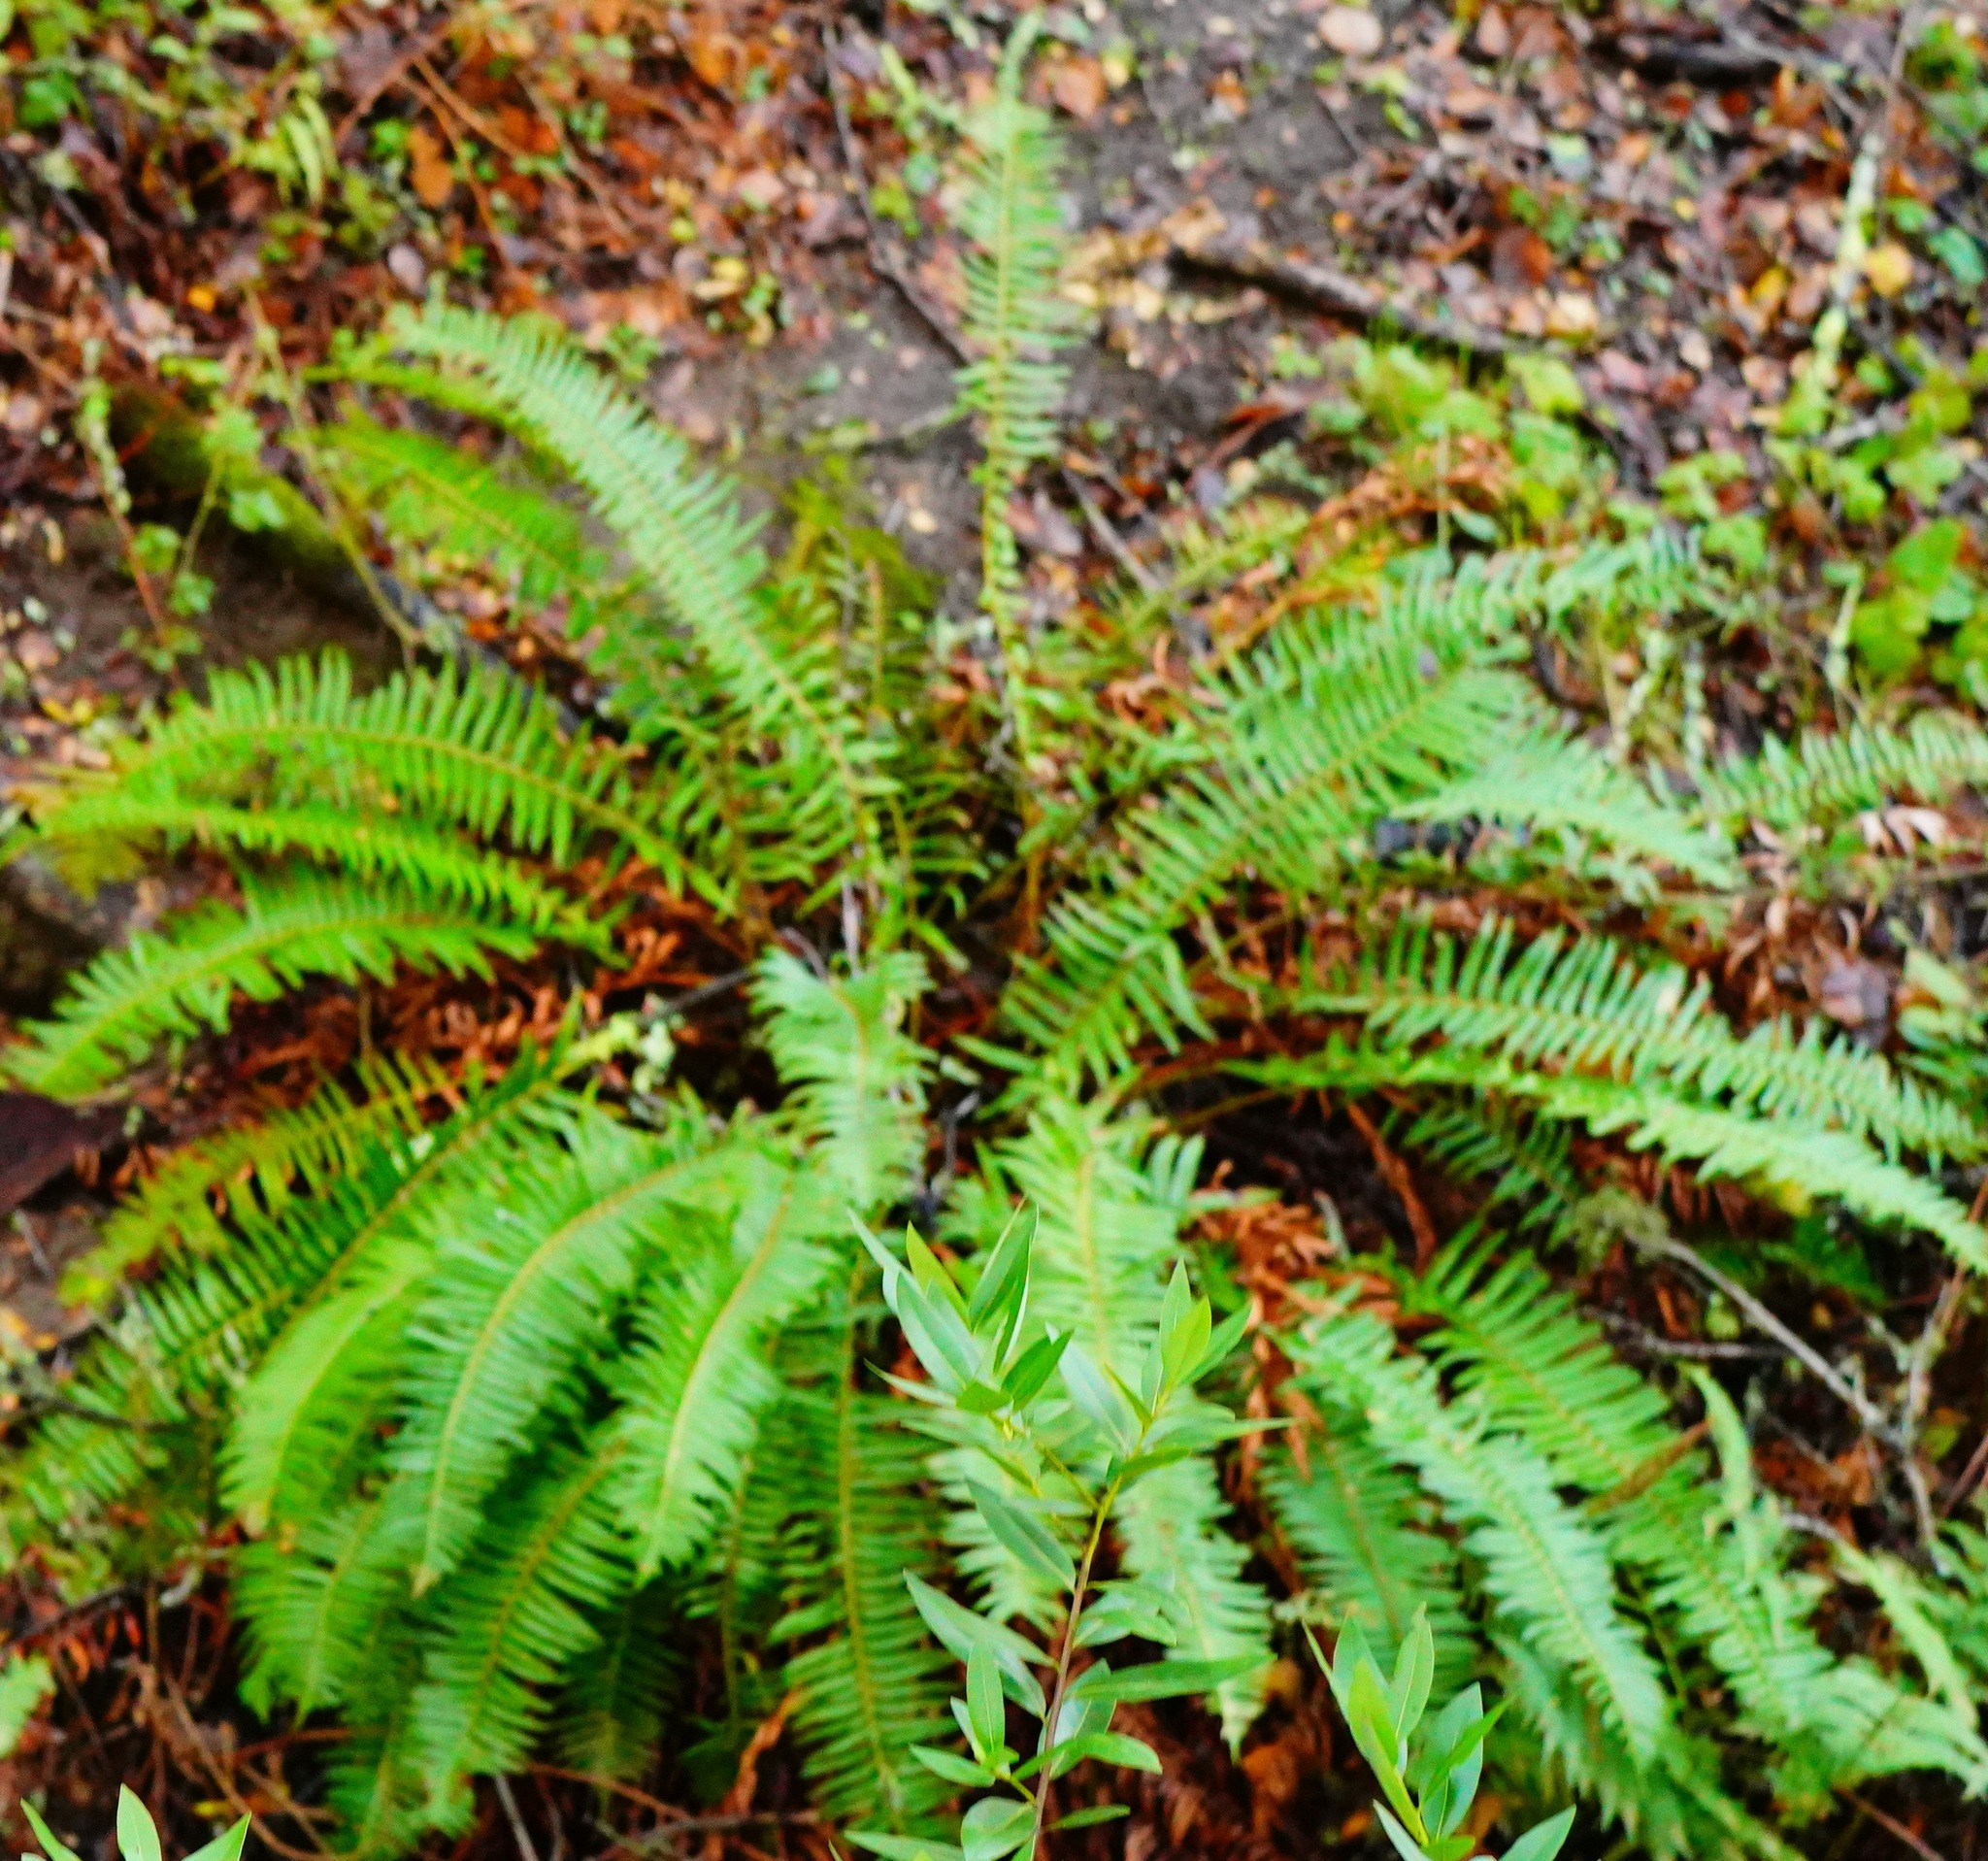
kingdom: Plantae
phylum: Tracheophyta
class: Polypodiopsida
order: Polypodiales
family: Dryopteridaceae
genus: Polystichum
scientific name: Polystichum munitum
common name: Western sword-fern
